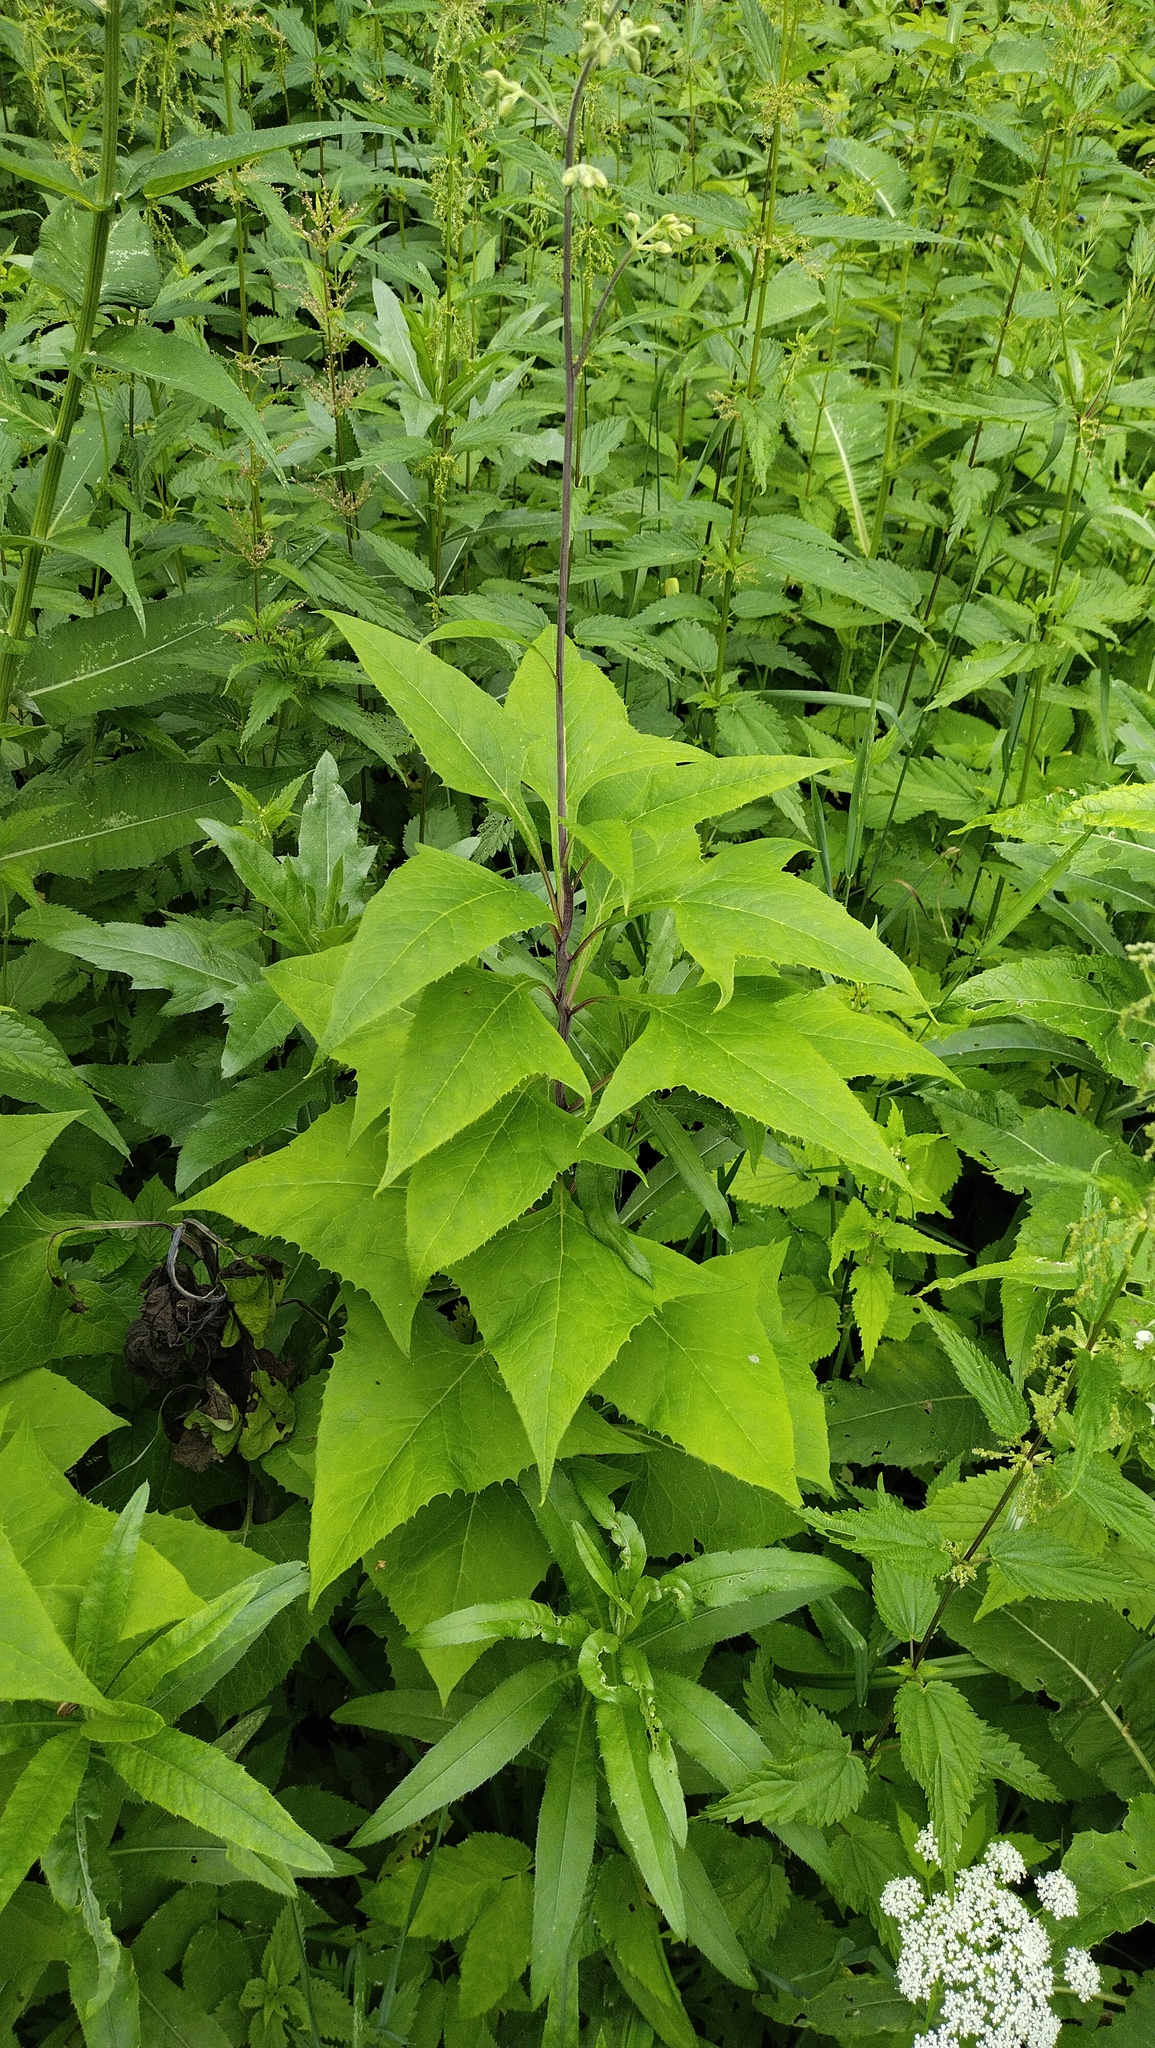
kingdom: Plantae
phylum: Tracheophyta
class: Magnoliopsida
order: Asterales
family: Asteraceae
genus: Parasenecio
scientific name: Parasenecio hastatus
